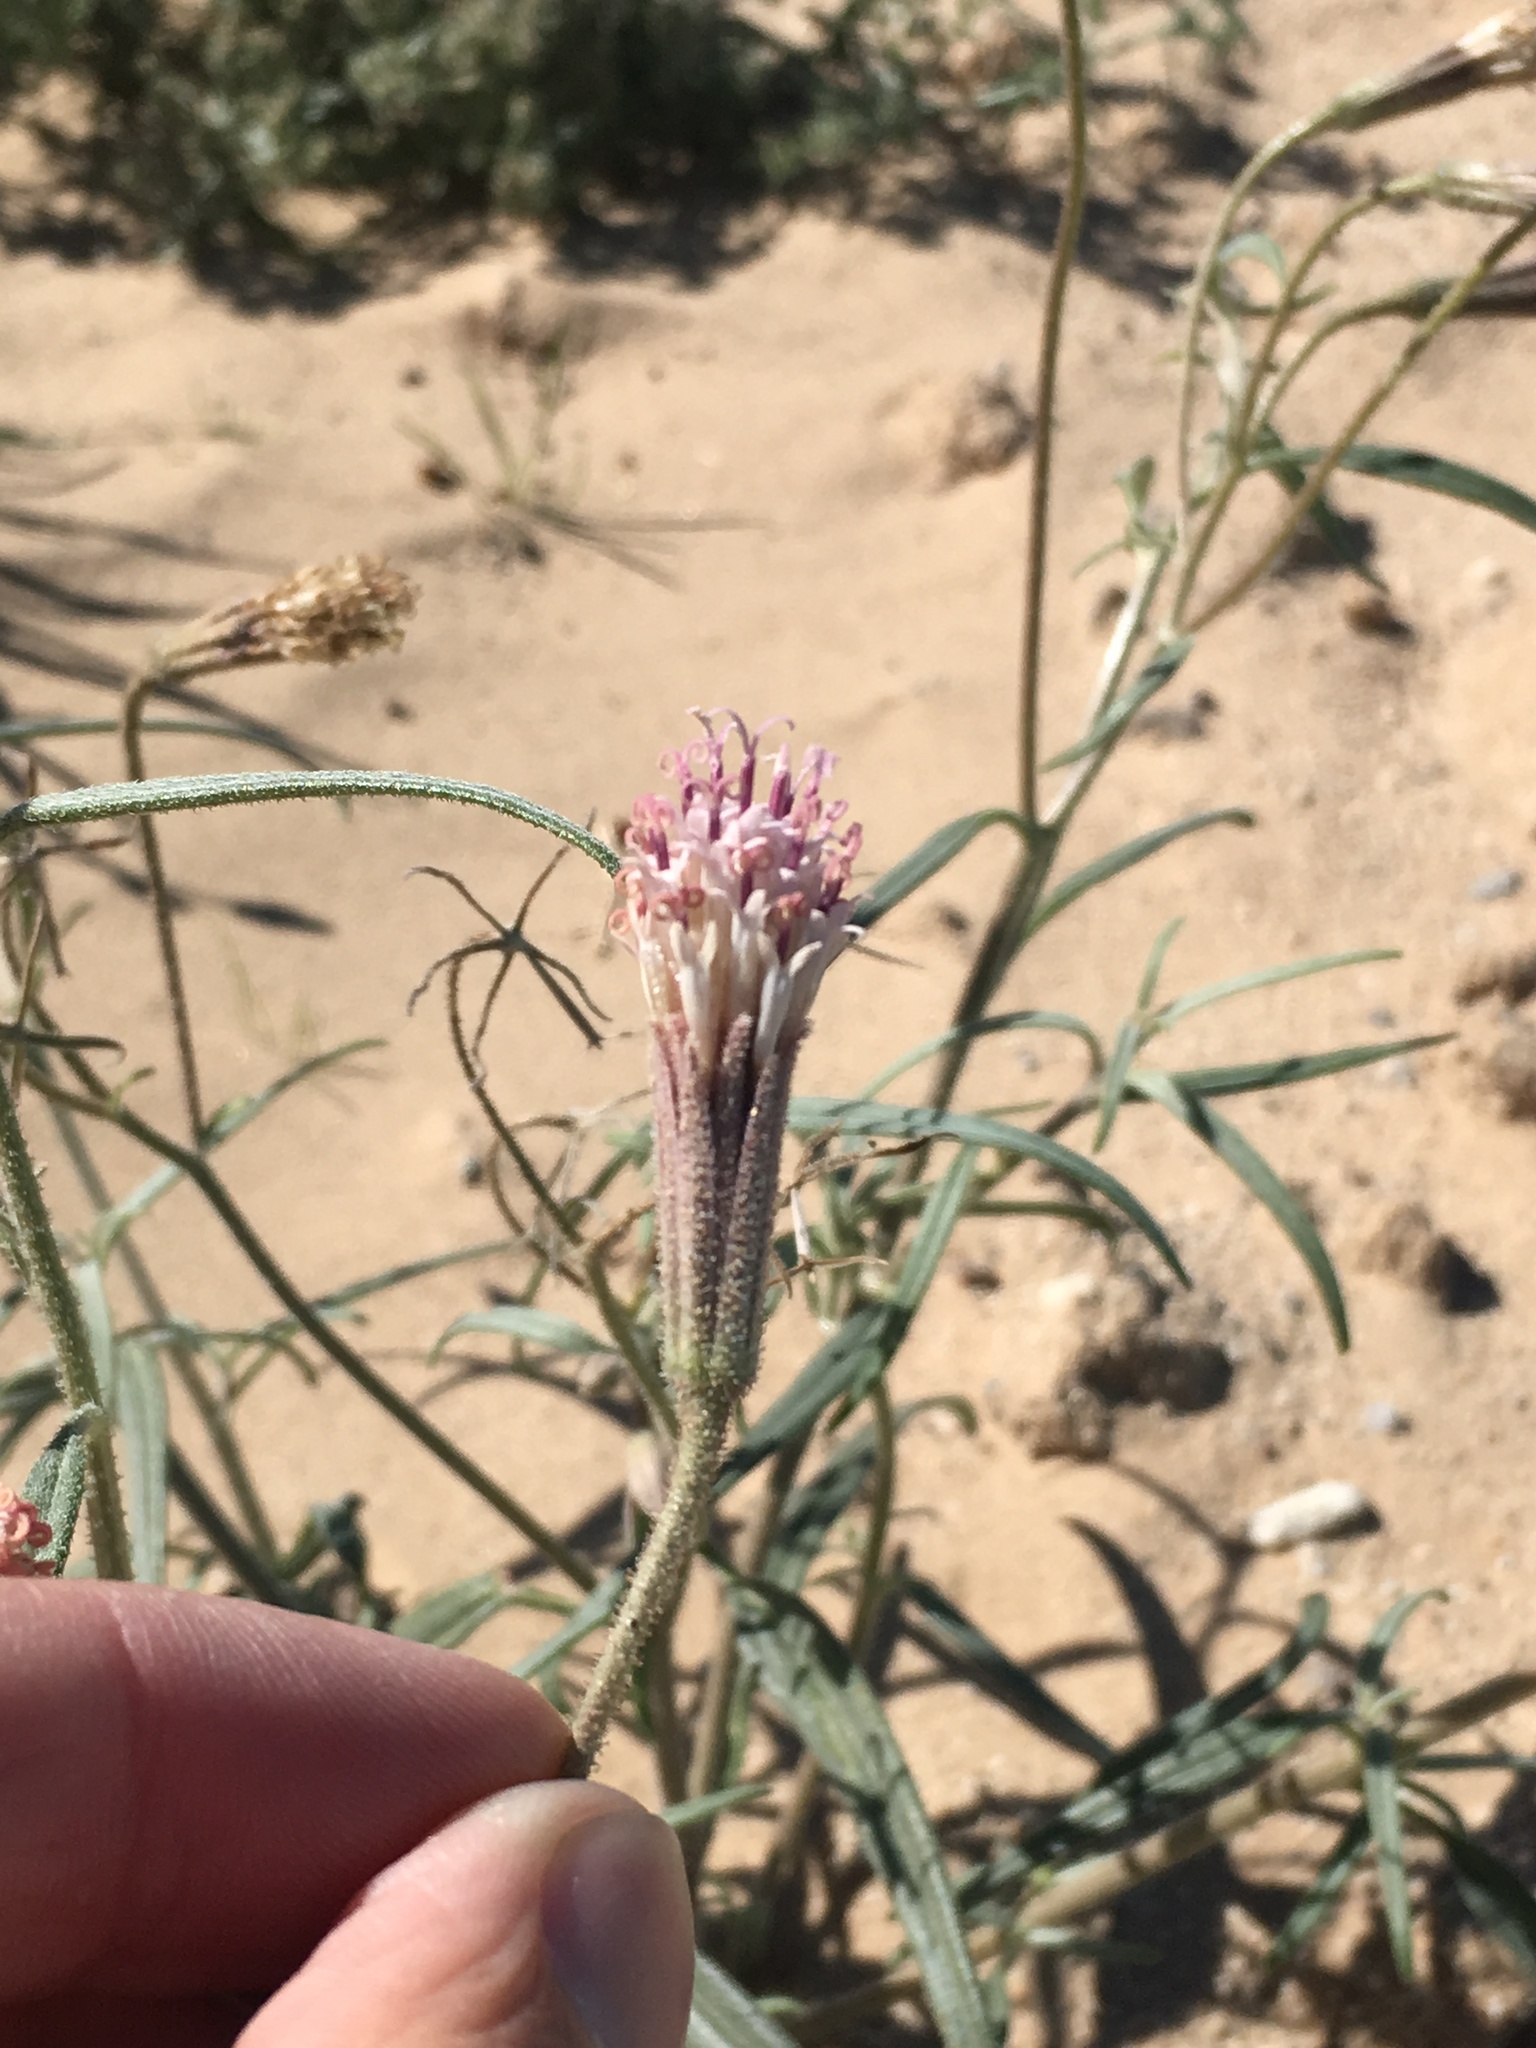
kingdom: Plantae
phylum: Tracheophyta
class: Magnoliopsida
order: Asterales
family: Asteraceae
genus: Palafoxia
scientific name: Palafoxia arida
